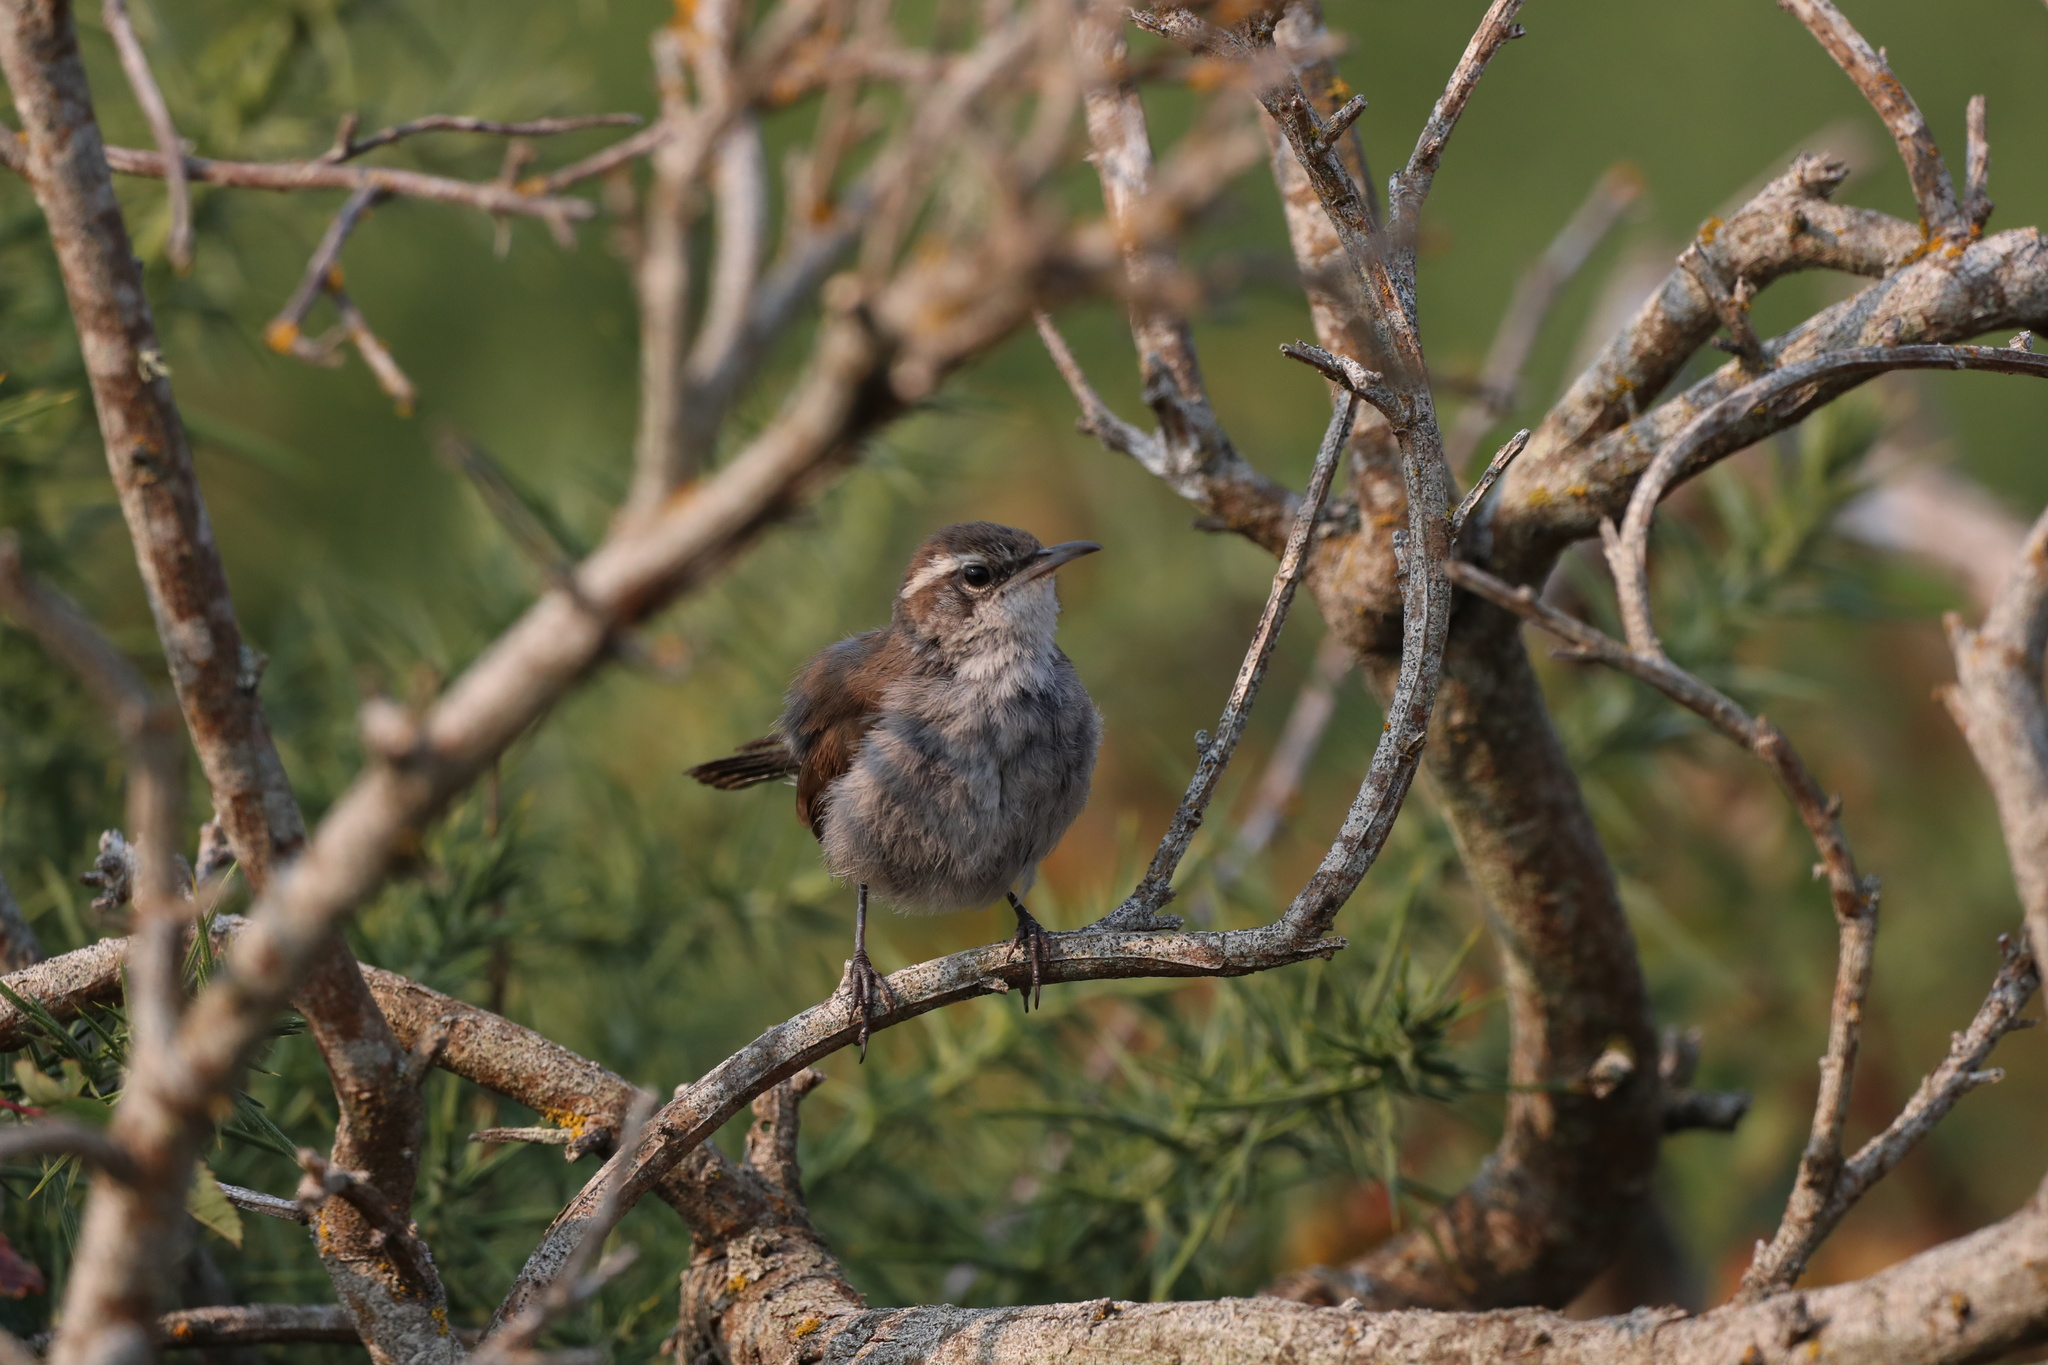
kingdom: Animalia
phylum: Chordata
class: Aves
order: Passeriformes
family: Troglodytidae
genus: Thryomanes
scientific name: Thryomanes bewickii
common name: Bewick's wren
